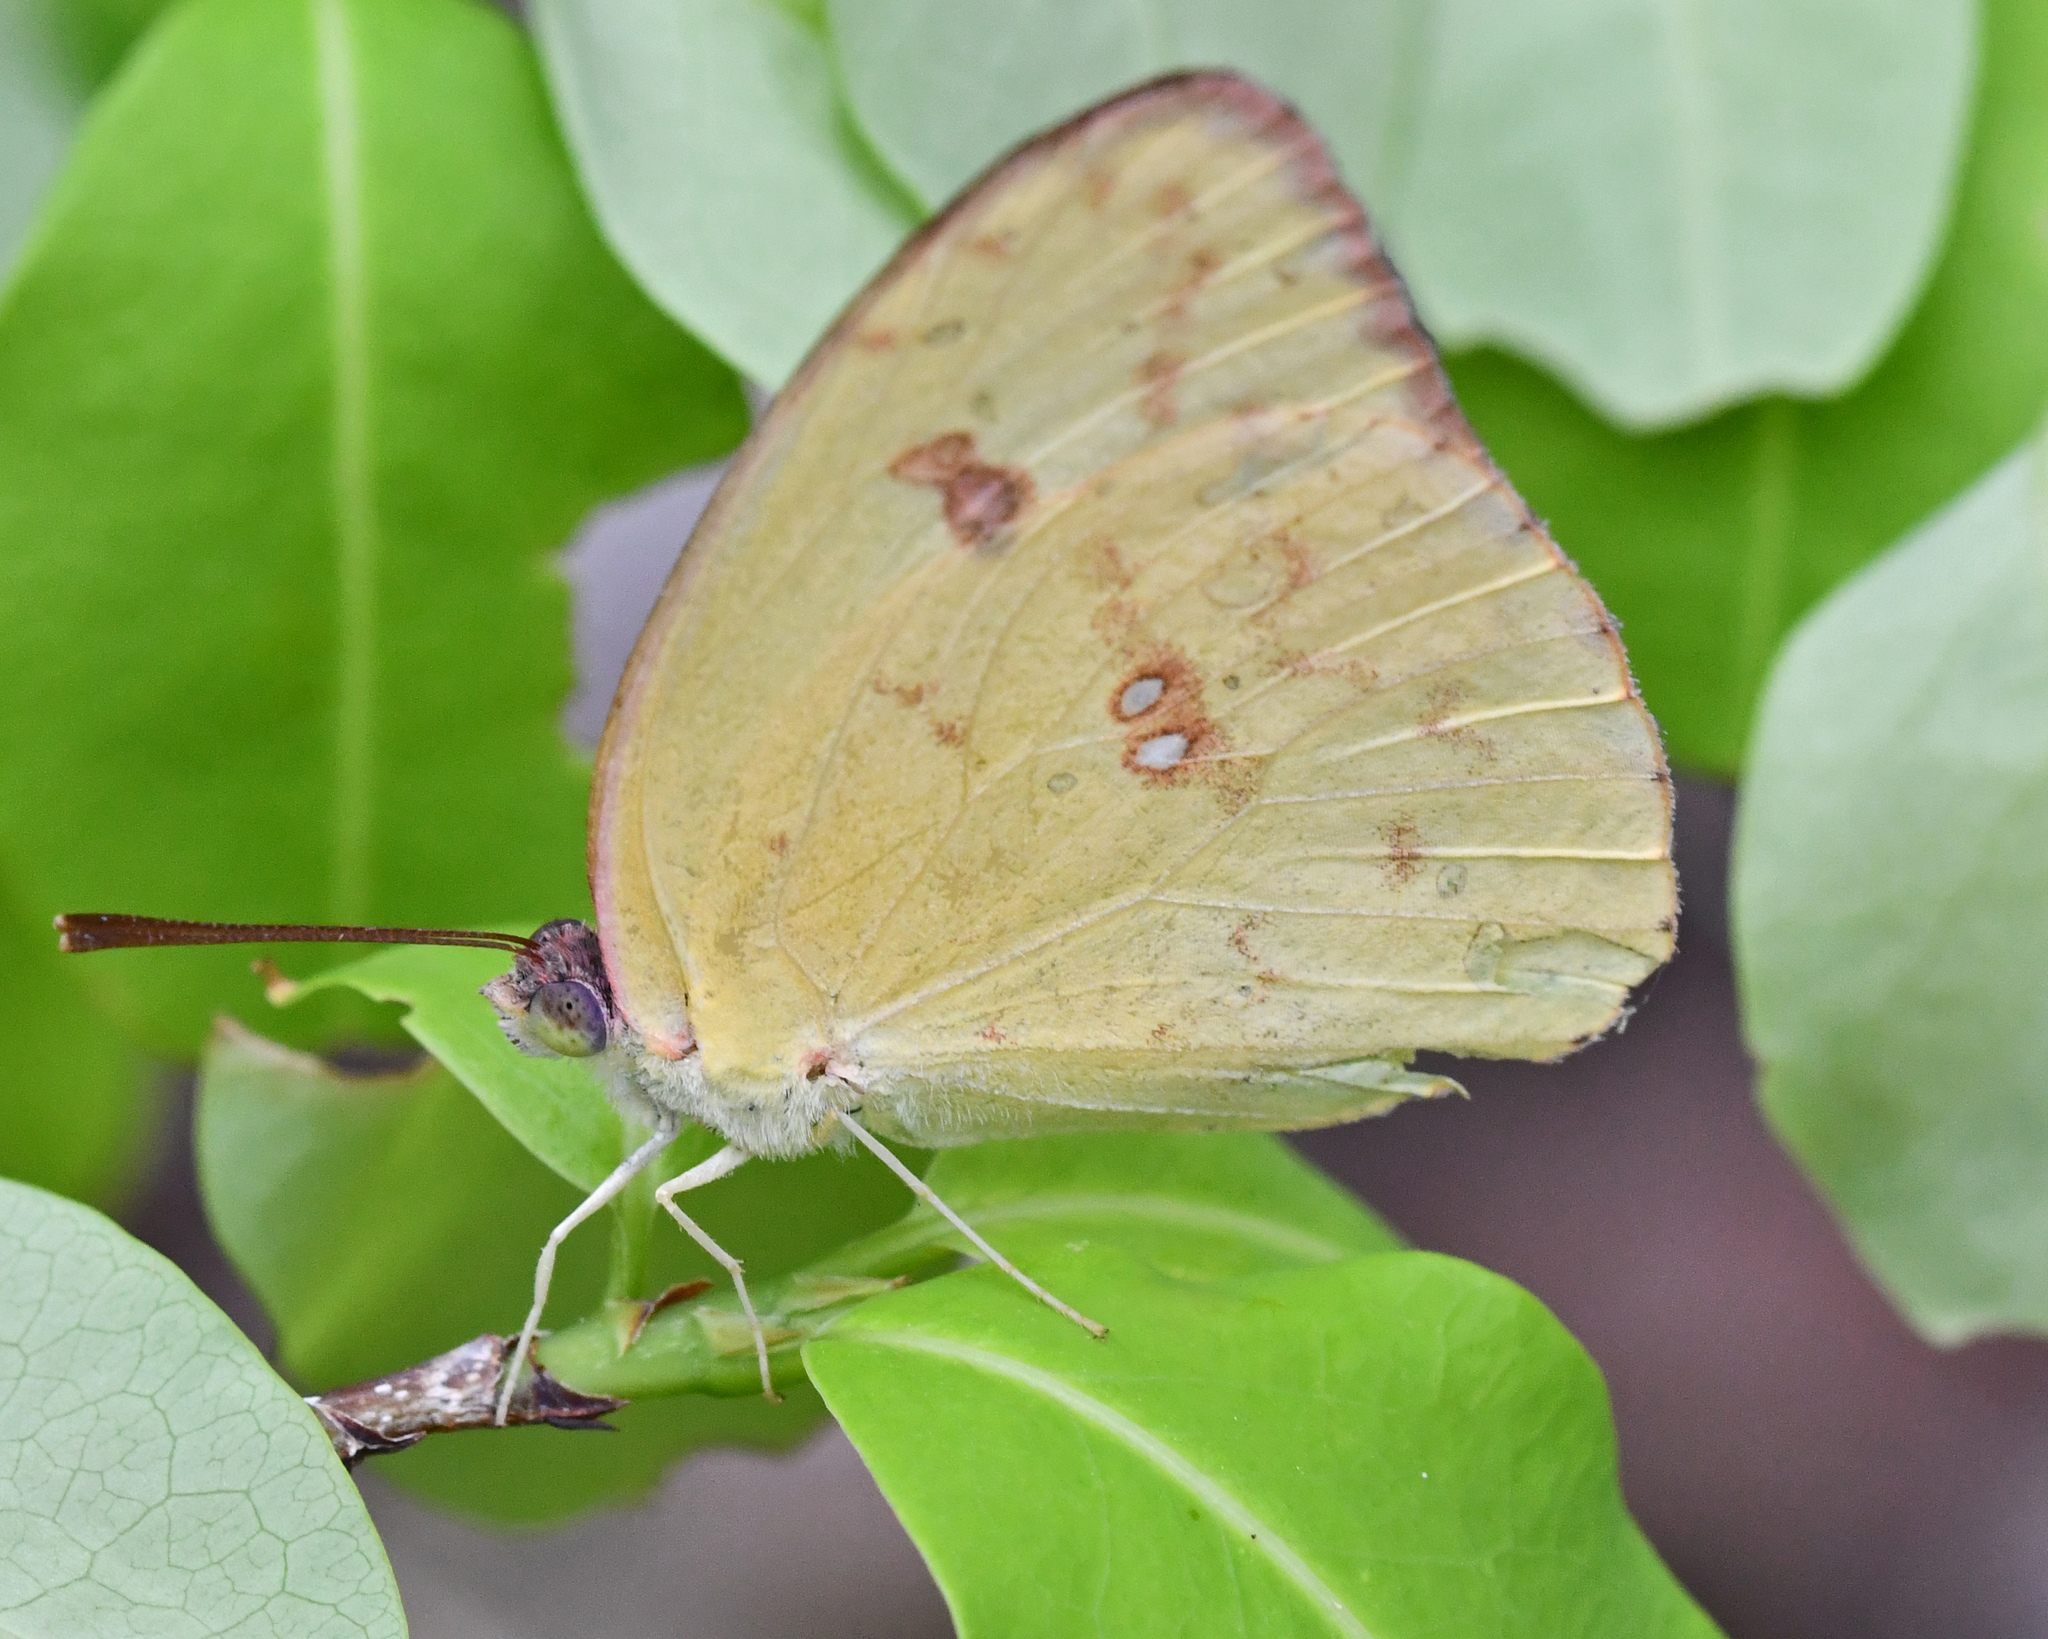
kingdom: Animalia
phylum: Arthropoda
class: Insecta
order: Lepidoptera
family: Pieridae
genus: Phoebis
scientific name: Phoebis sennae
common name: Cloudless sulphur
